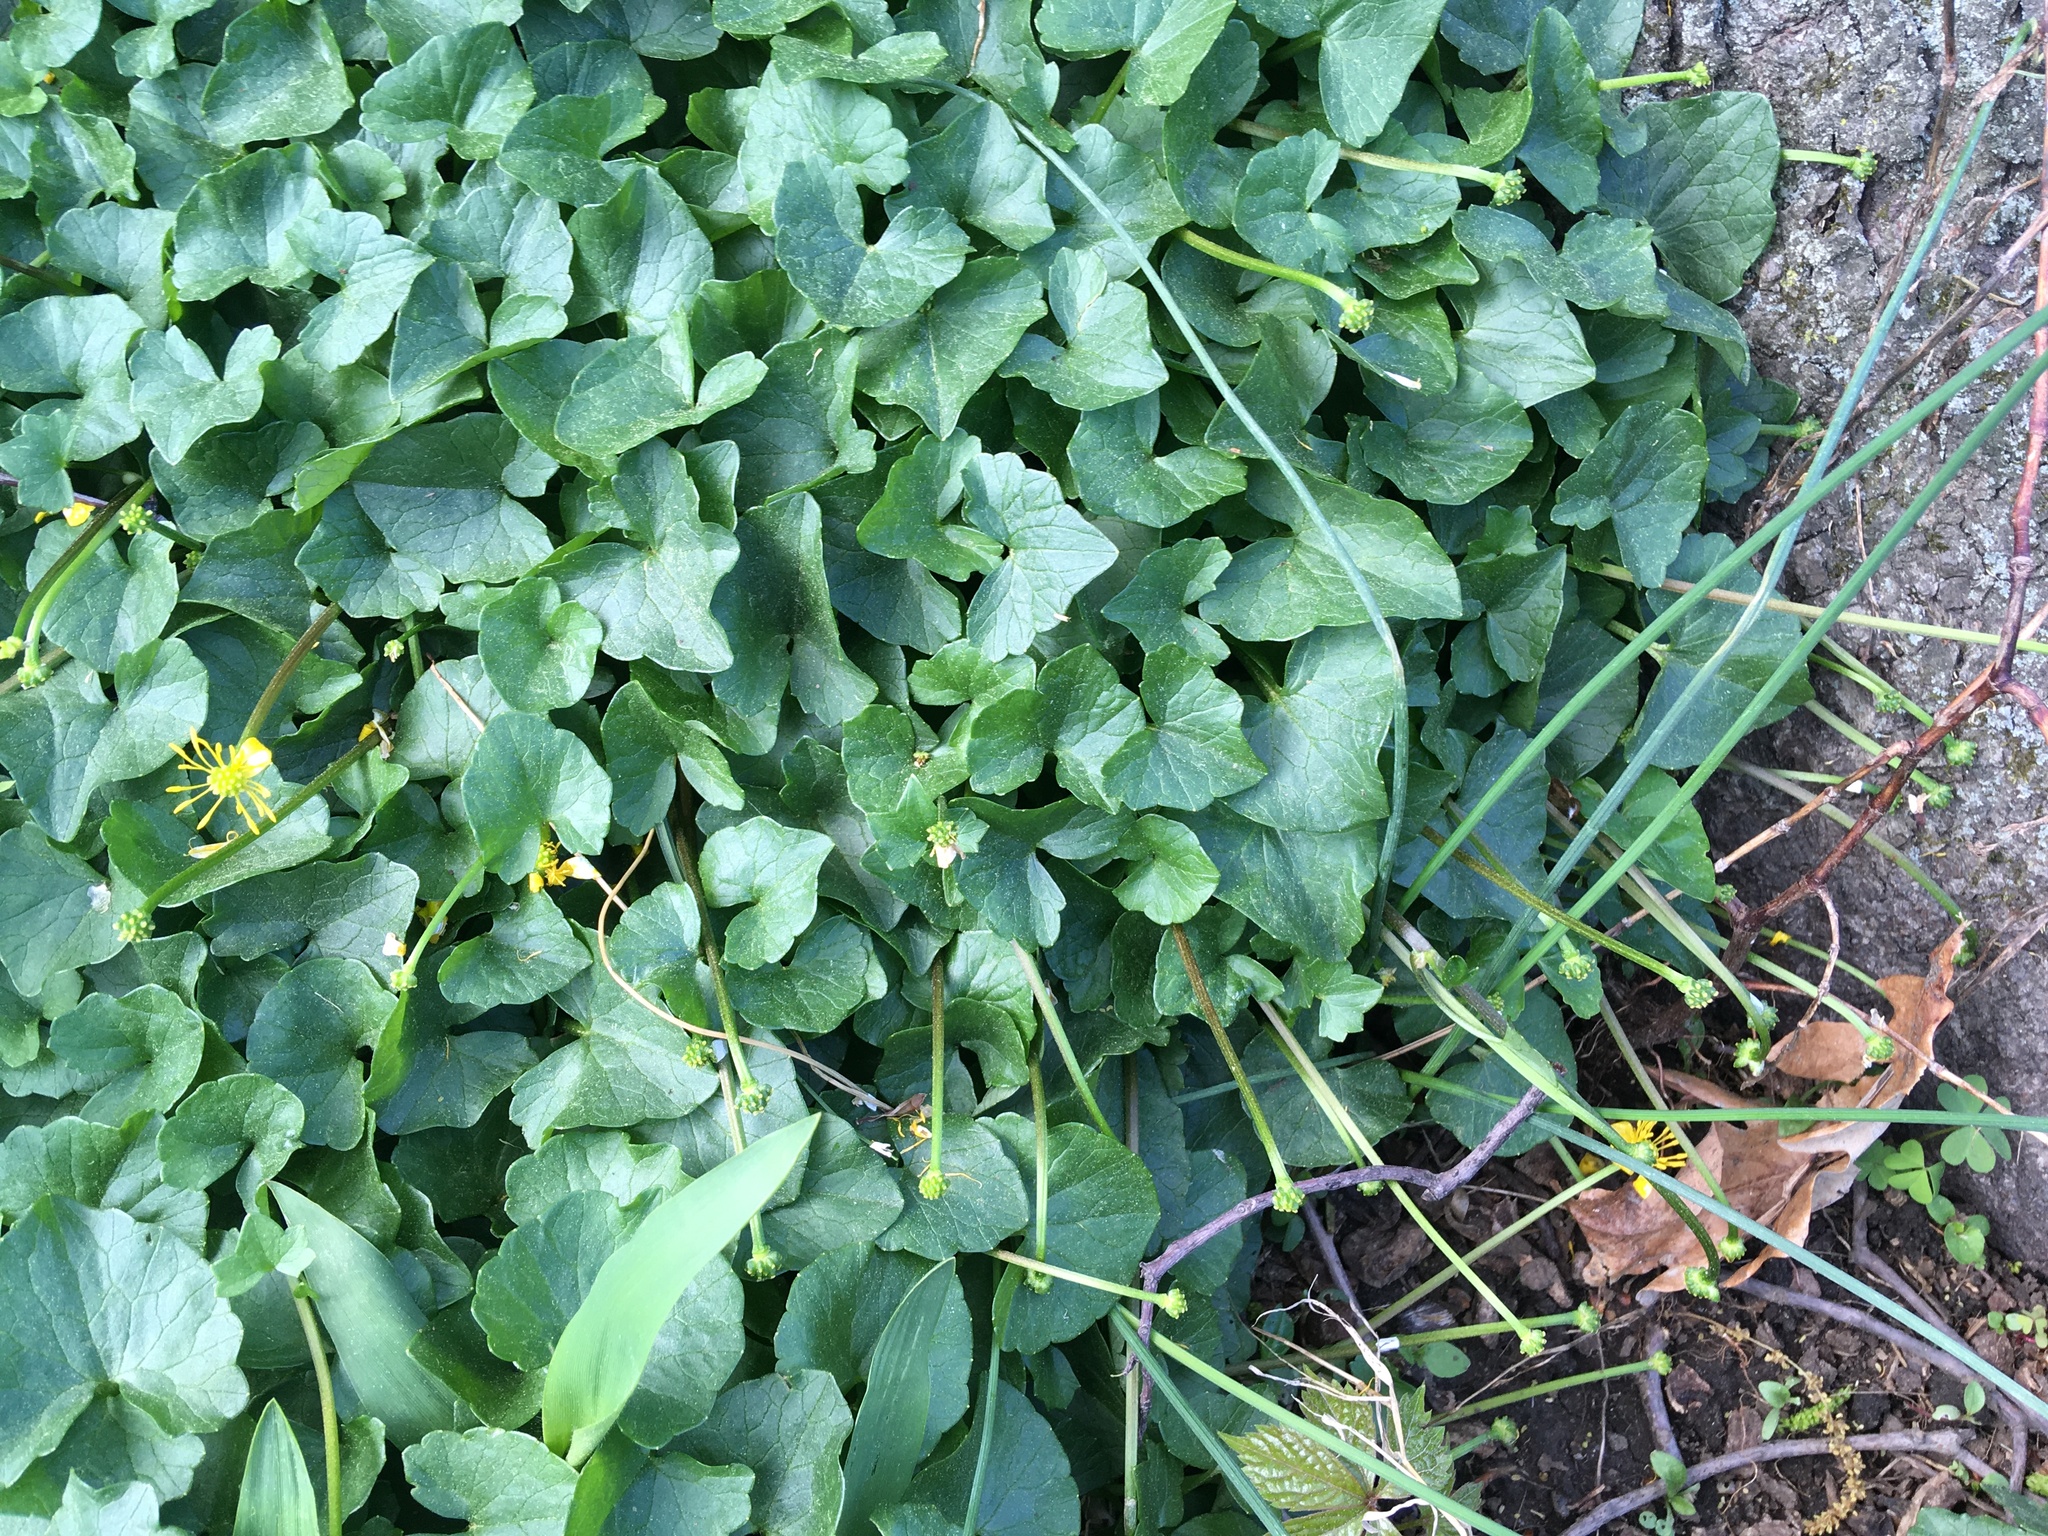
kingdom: Plantae
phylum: Tracheophyta
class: Magnoliopsida
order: Ranunculales
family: Ranunculaceae
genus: Ficaria
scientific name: Ficaria verna
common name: Lesser celandine
